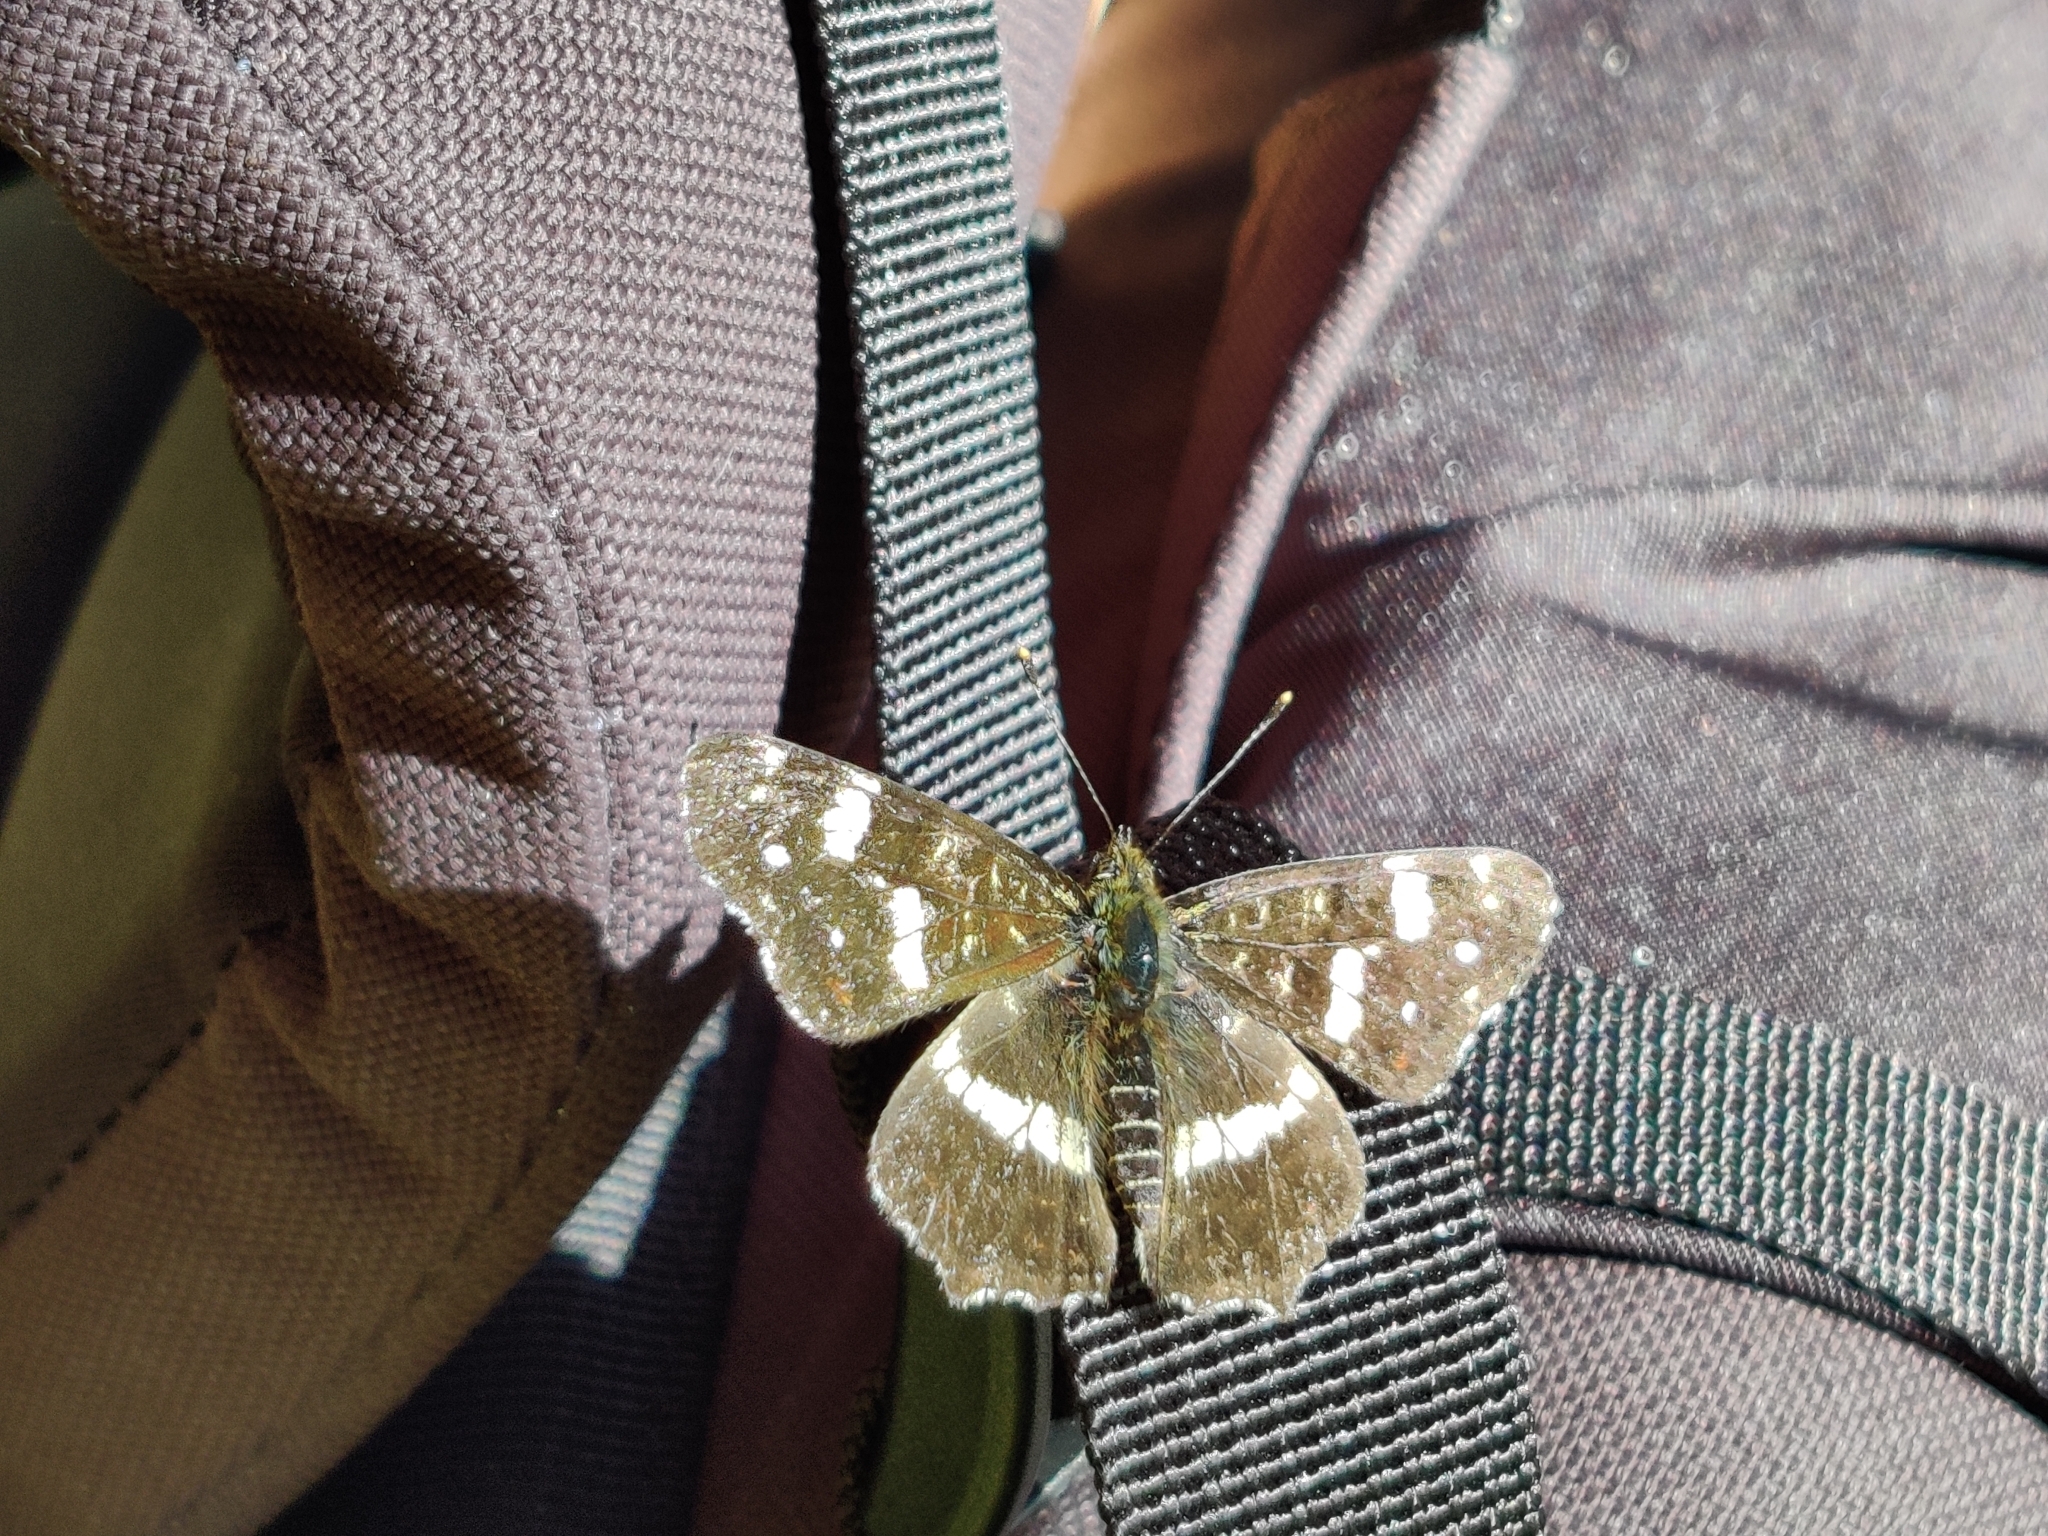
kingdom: Animalia
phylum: Arthropoda
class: Insecta
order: Lepidoptera
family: Nymphalidae
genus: Araschnia
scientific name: Araschnia levana
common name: Map butterfly
